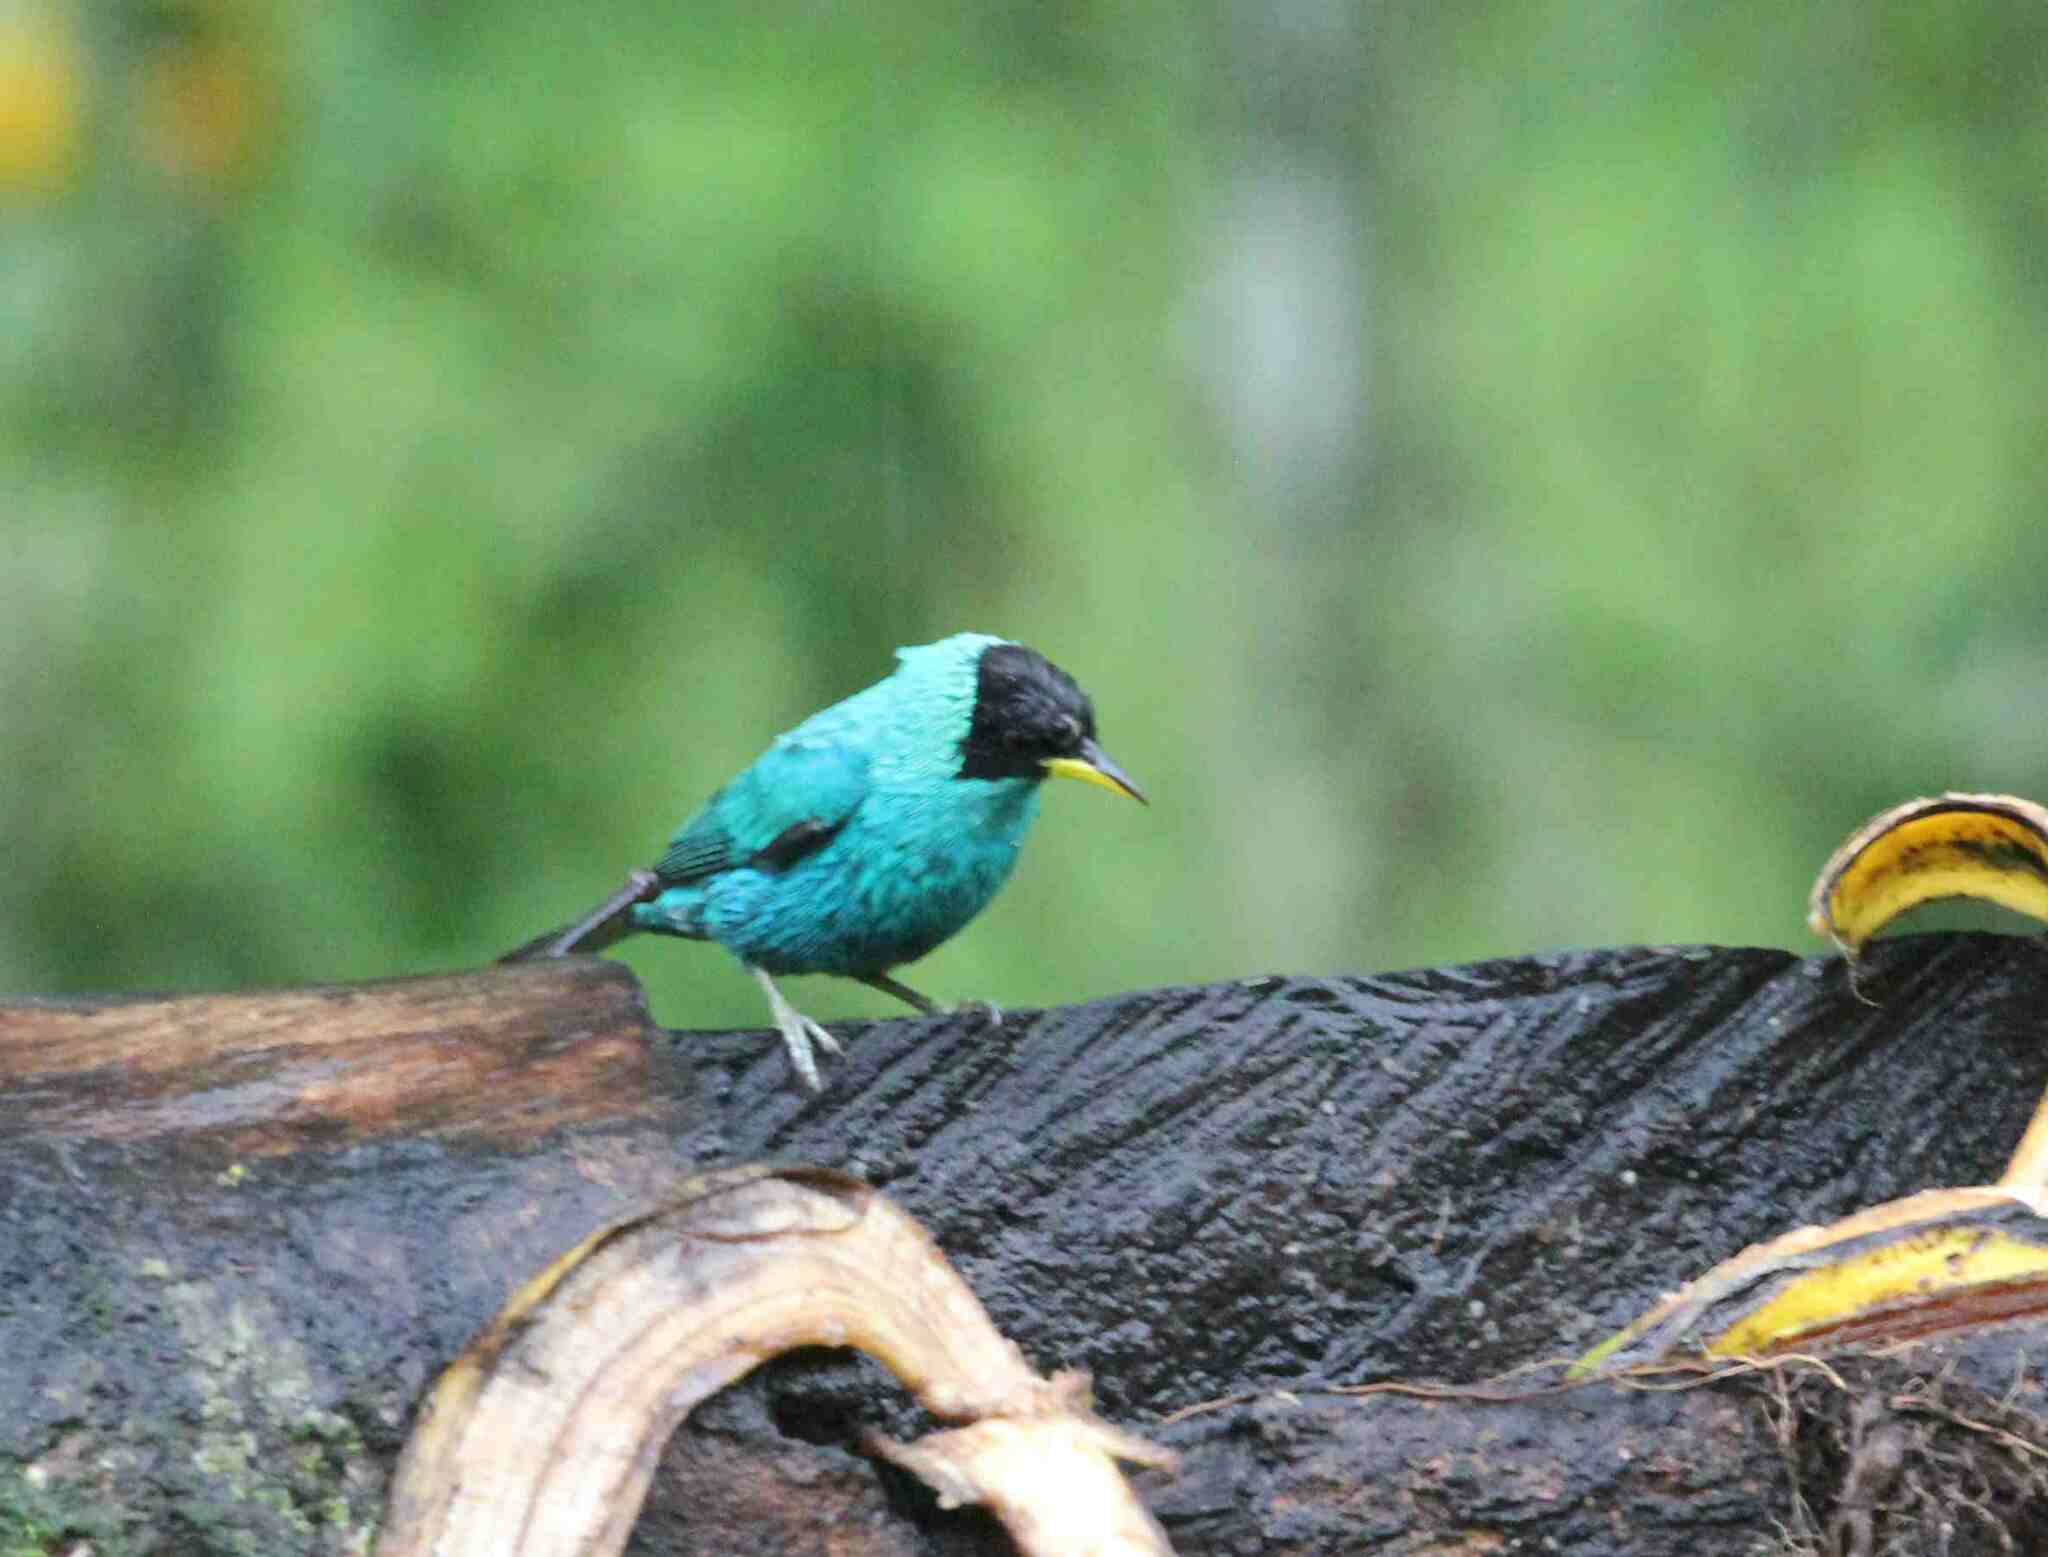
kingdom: Animalia
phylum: Chordata
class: Aves
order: Passeriformes
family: Thraupidae
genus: Chlorophanes
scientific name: Chlorophanes spiza
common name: Green honeycreeper
